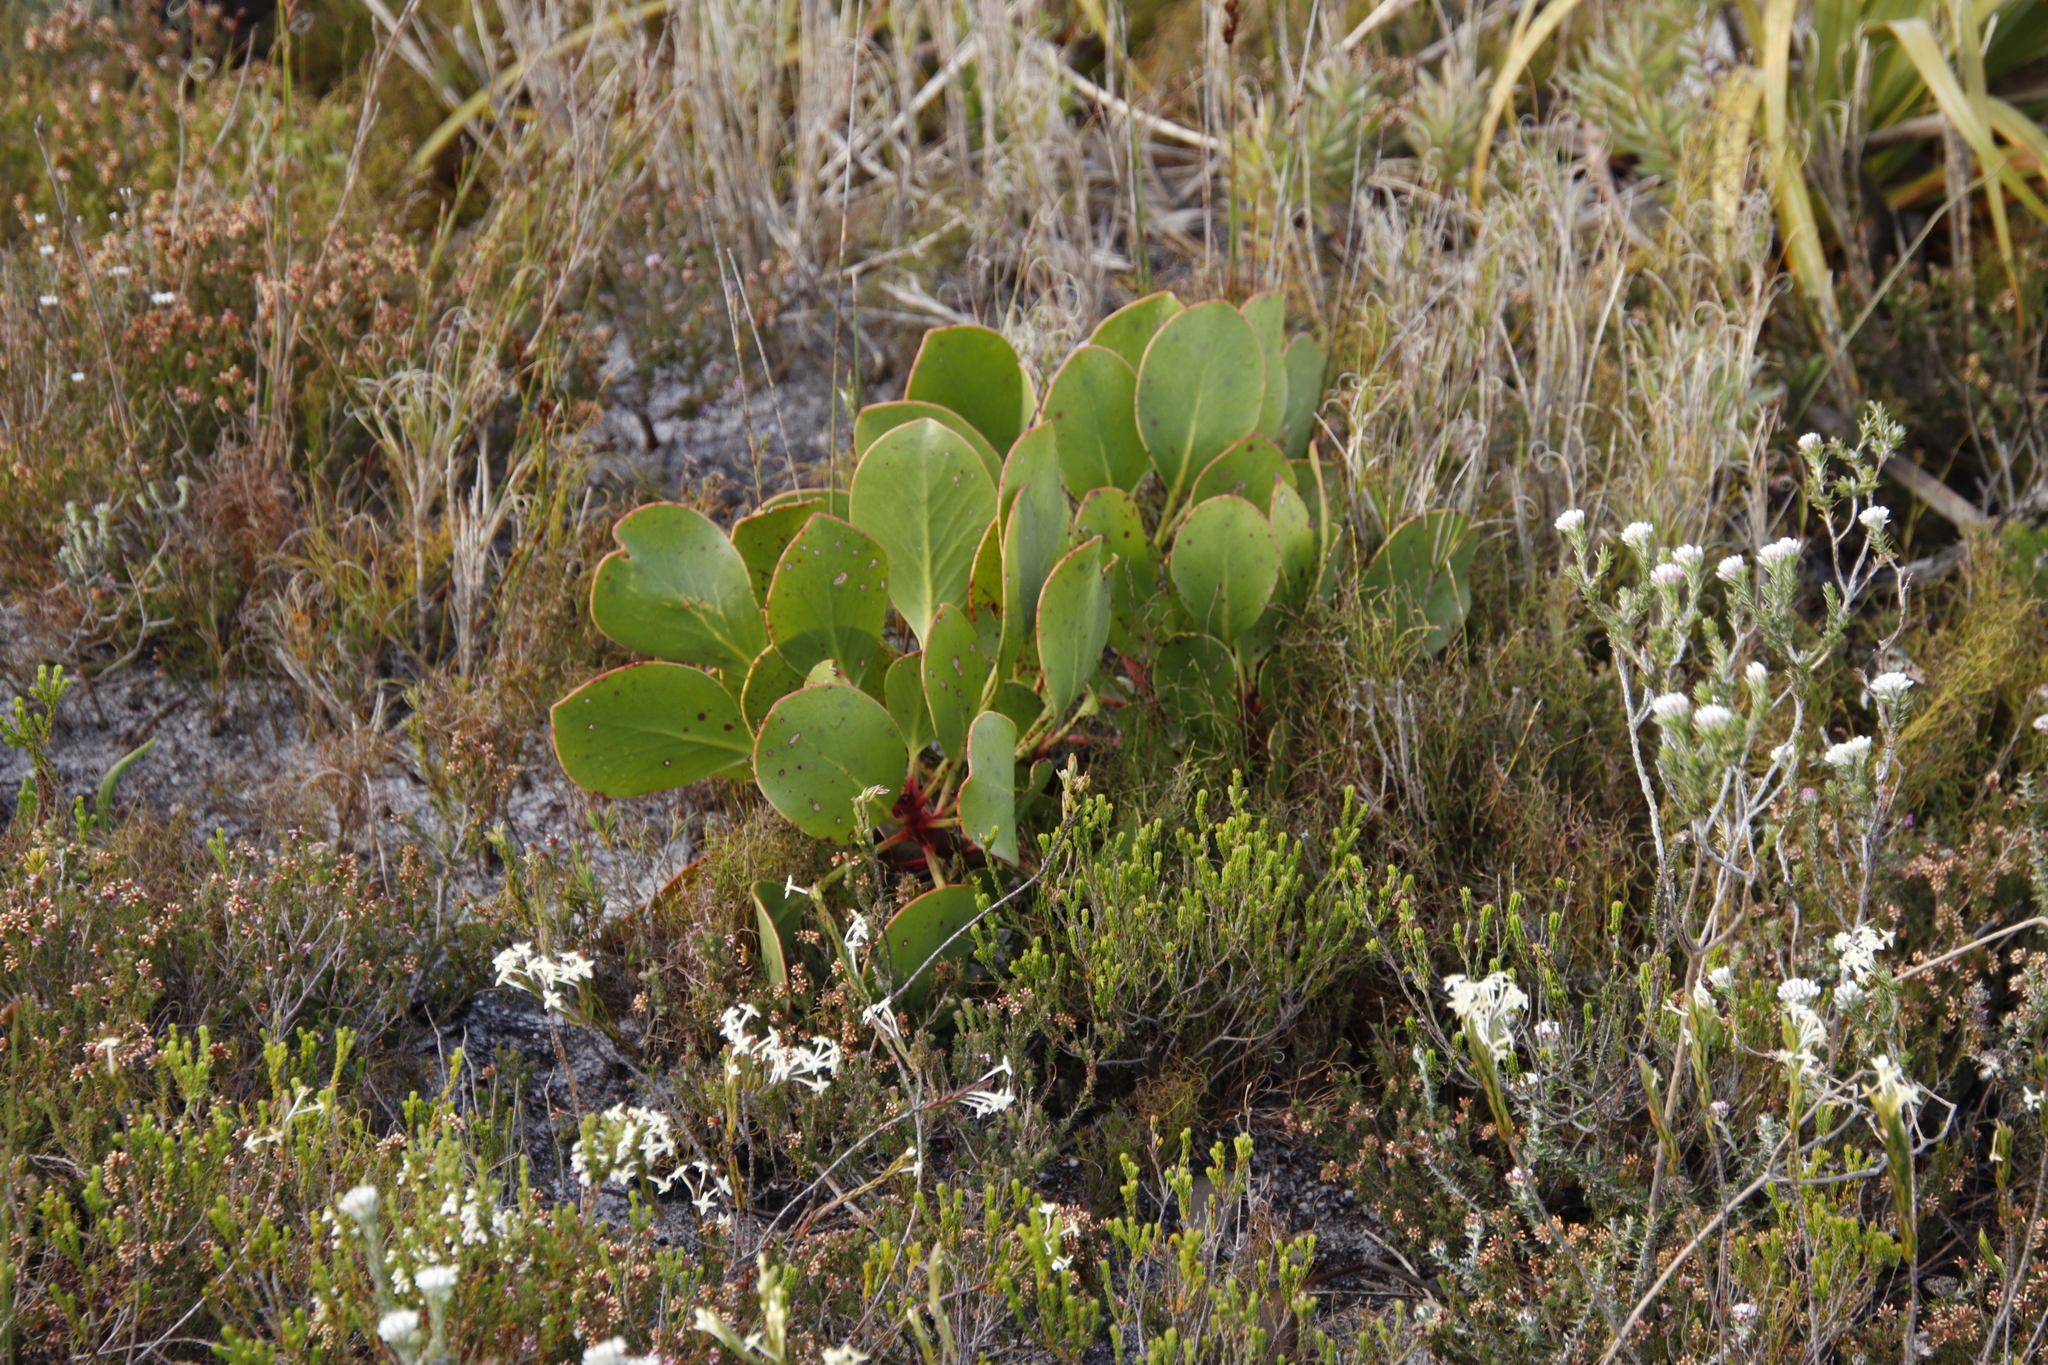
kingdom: Plantae
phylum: Tracheophyta
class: Magnoliopsida
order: Proteales
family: Proteaceae
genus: Protea
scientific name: Protea cynaroides
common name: King protea
